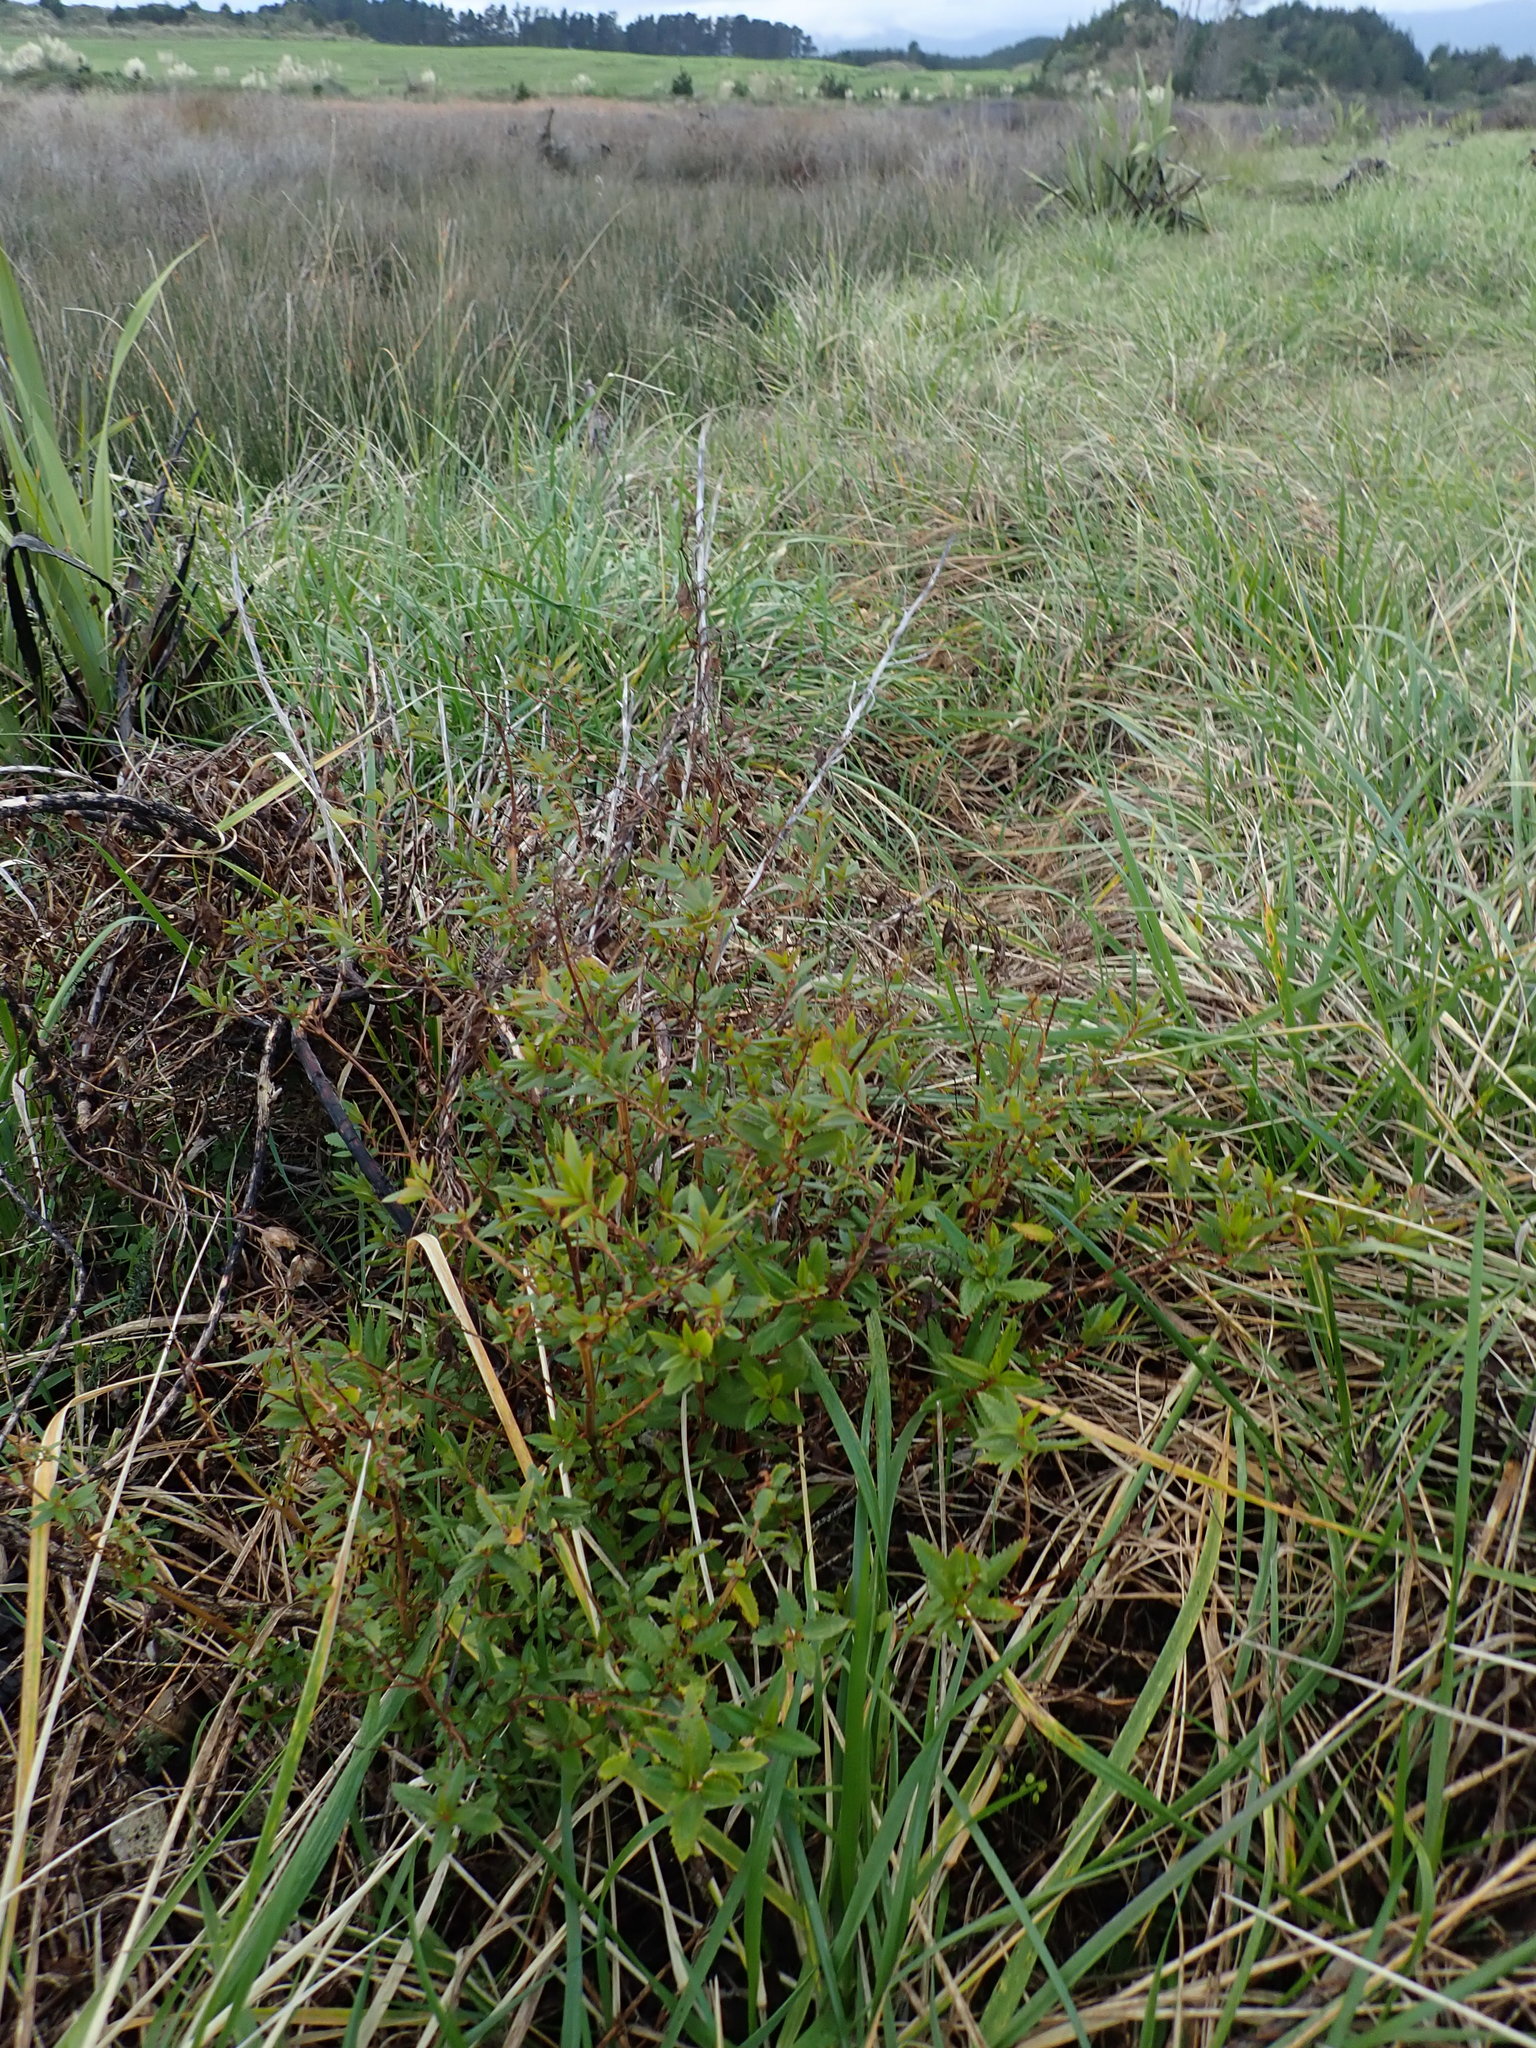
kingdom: Plantae
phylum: Tracheophyta
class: Magnoliopsida
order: Saxifragales
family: Haloragaceae
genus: Haloragis
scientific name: Haloragis erecta
